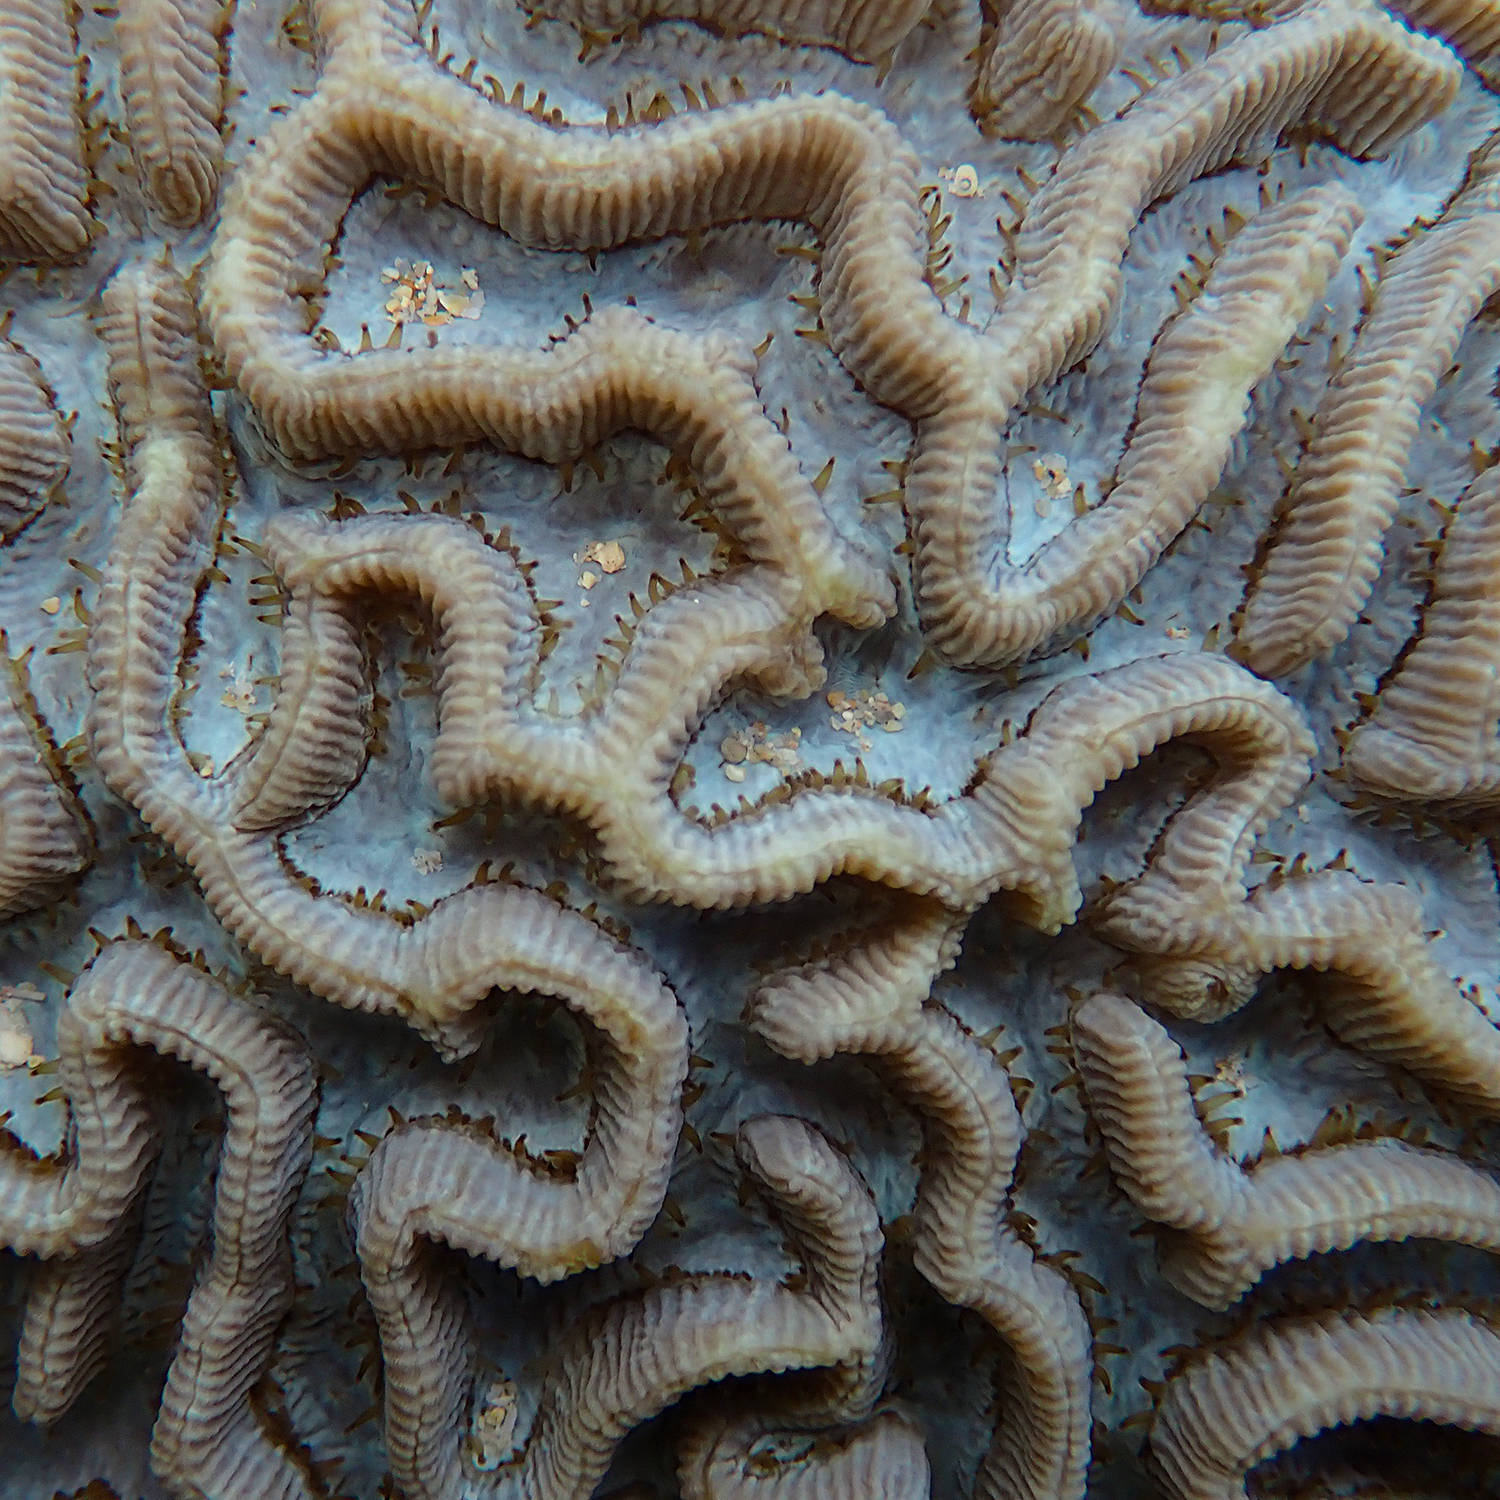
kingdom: Animalia
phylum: Cnidaria
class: Anthozoa
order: Scleractinia
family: Merulinidae
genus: Paragoniastrea
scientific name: Paragoniastrea australensis
